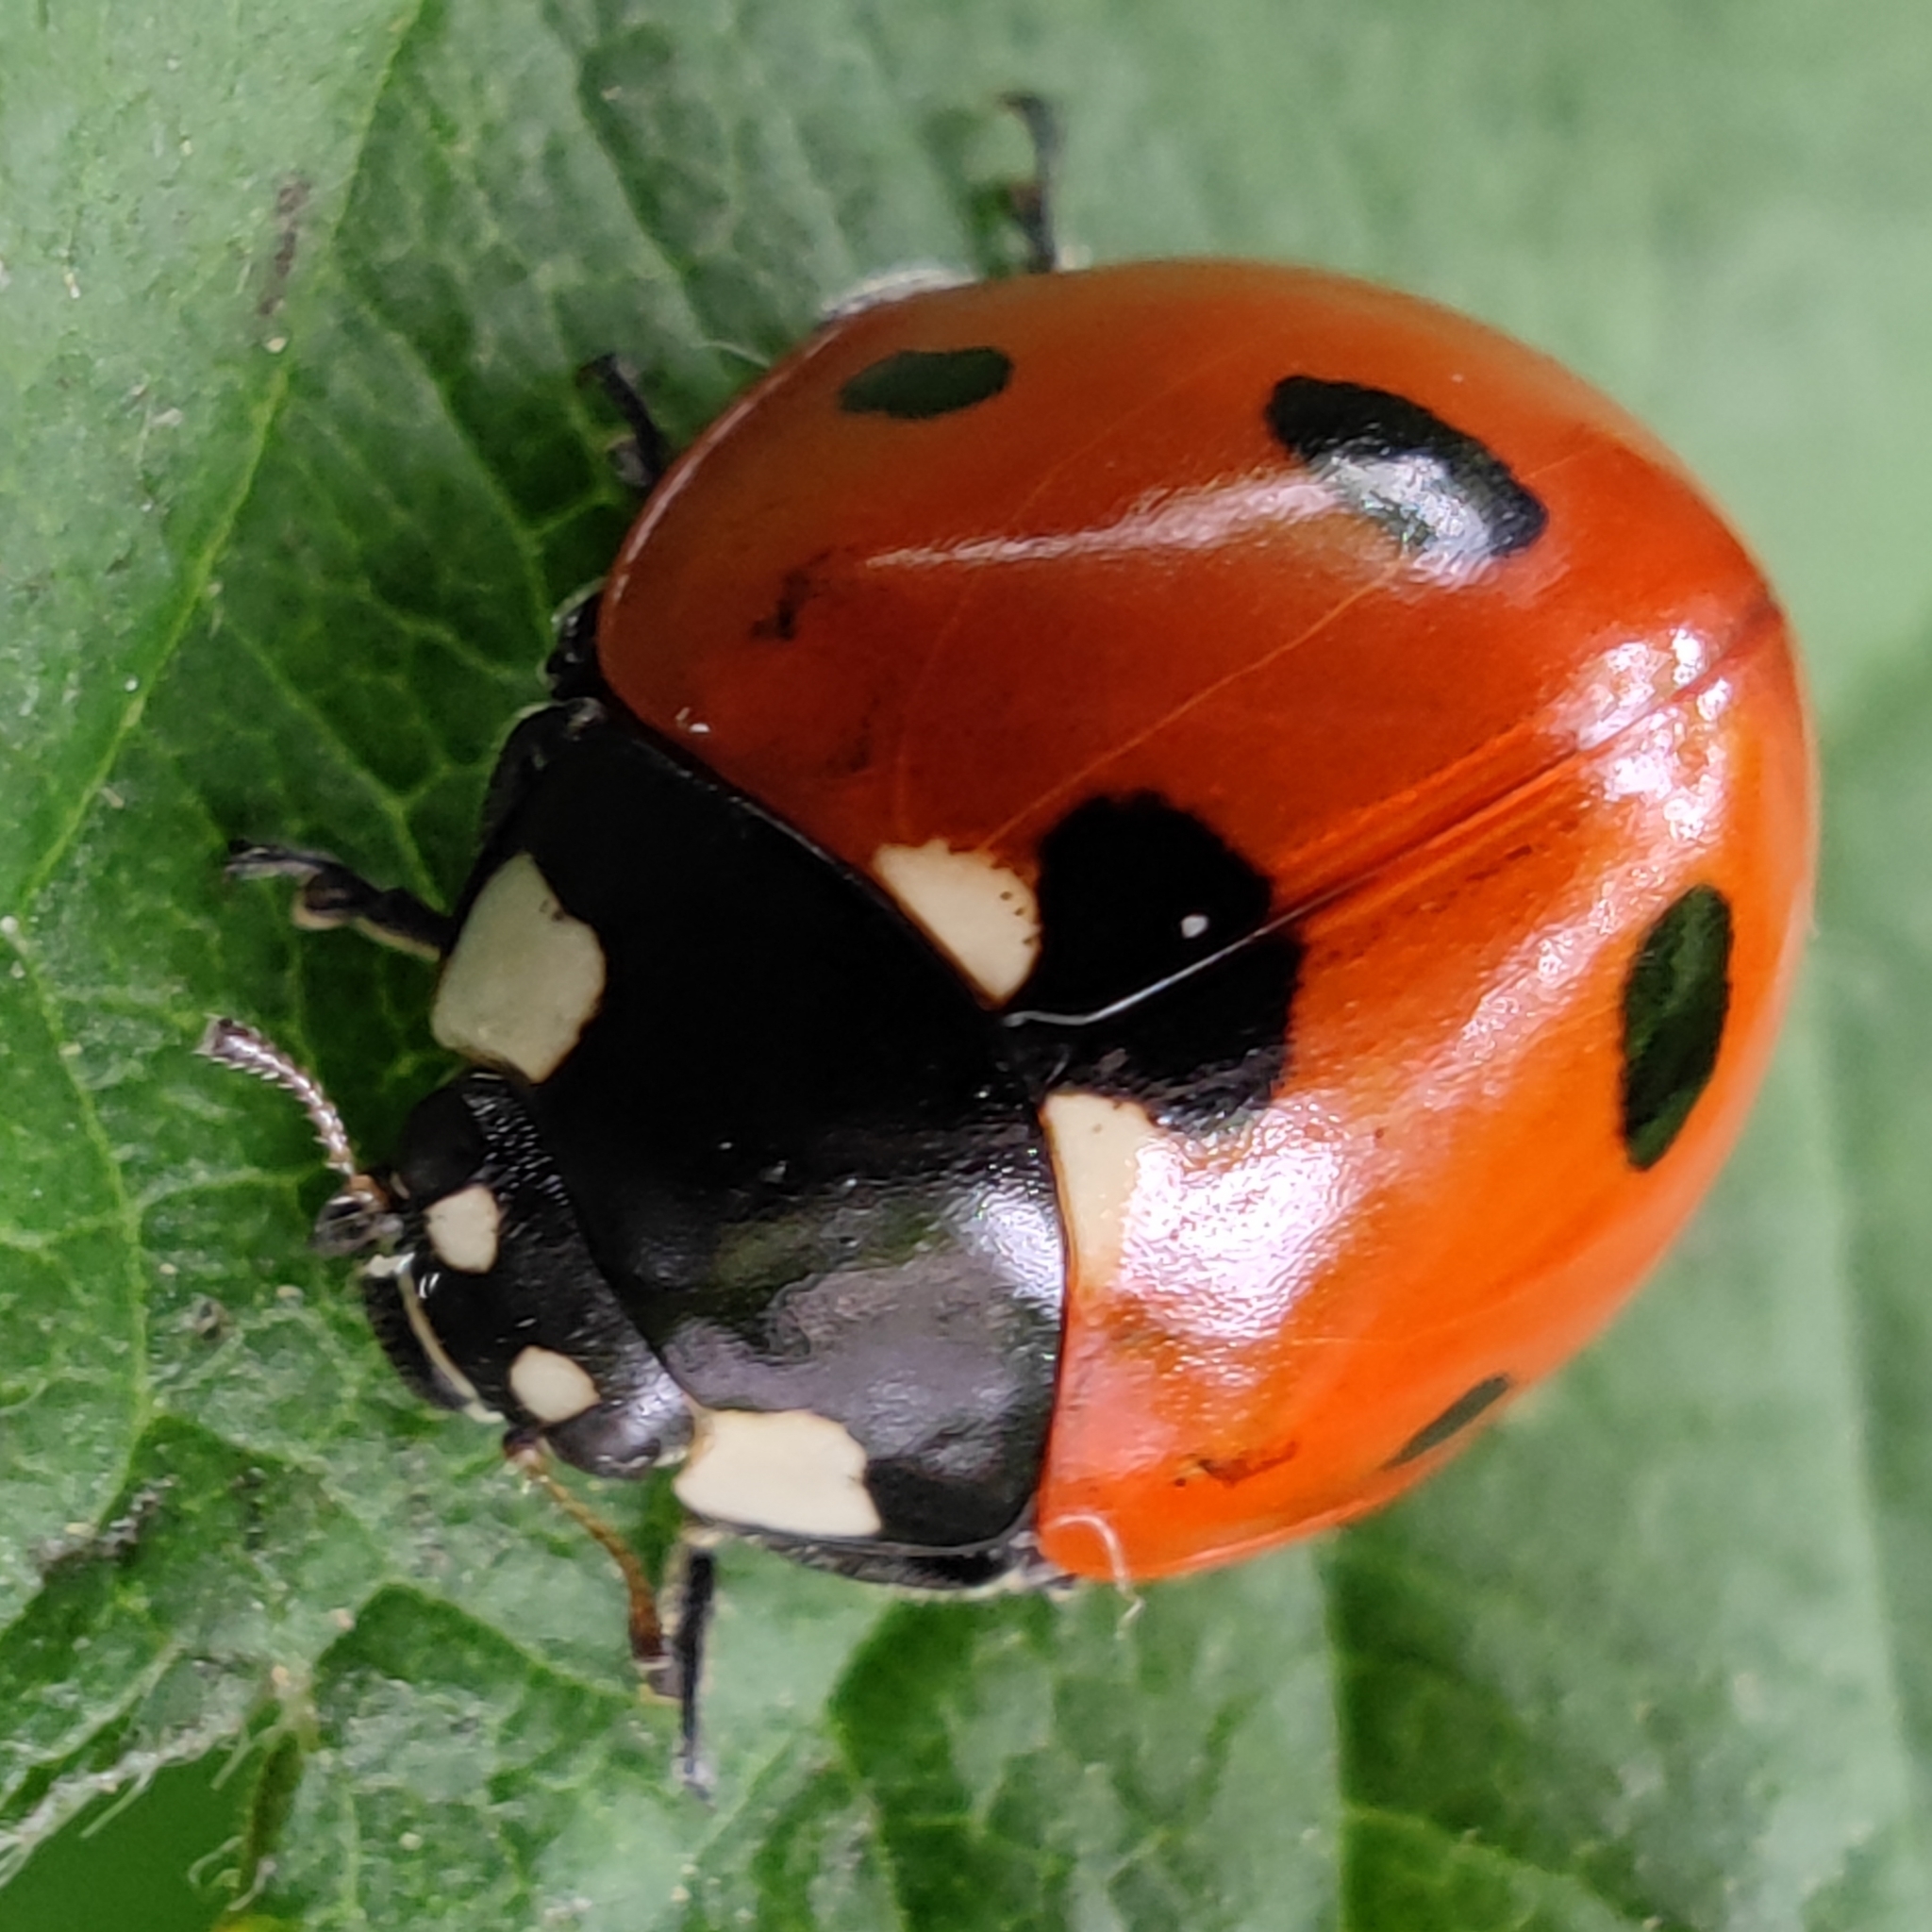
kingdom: Animalia
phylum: Arthropoda
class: Insecta
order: Coleoptera
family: Coccinellidae
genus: Coccinella
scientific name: Coccinella septempunctata
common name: Sevenspotted lady beetle
